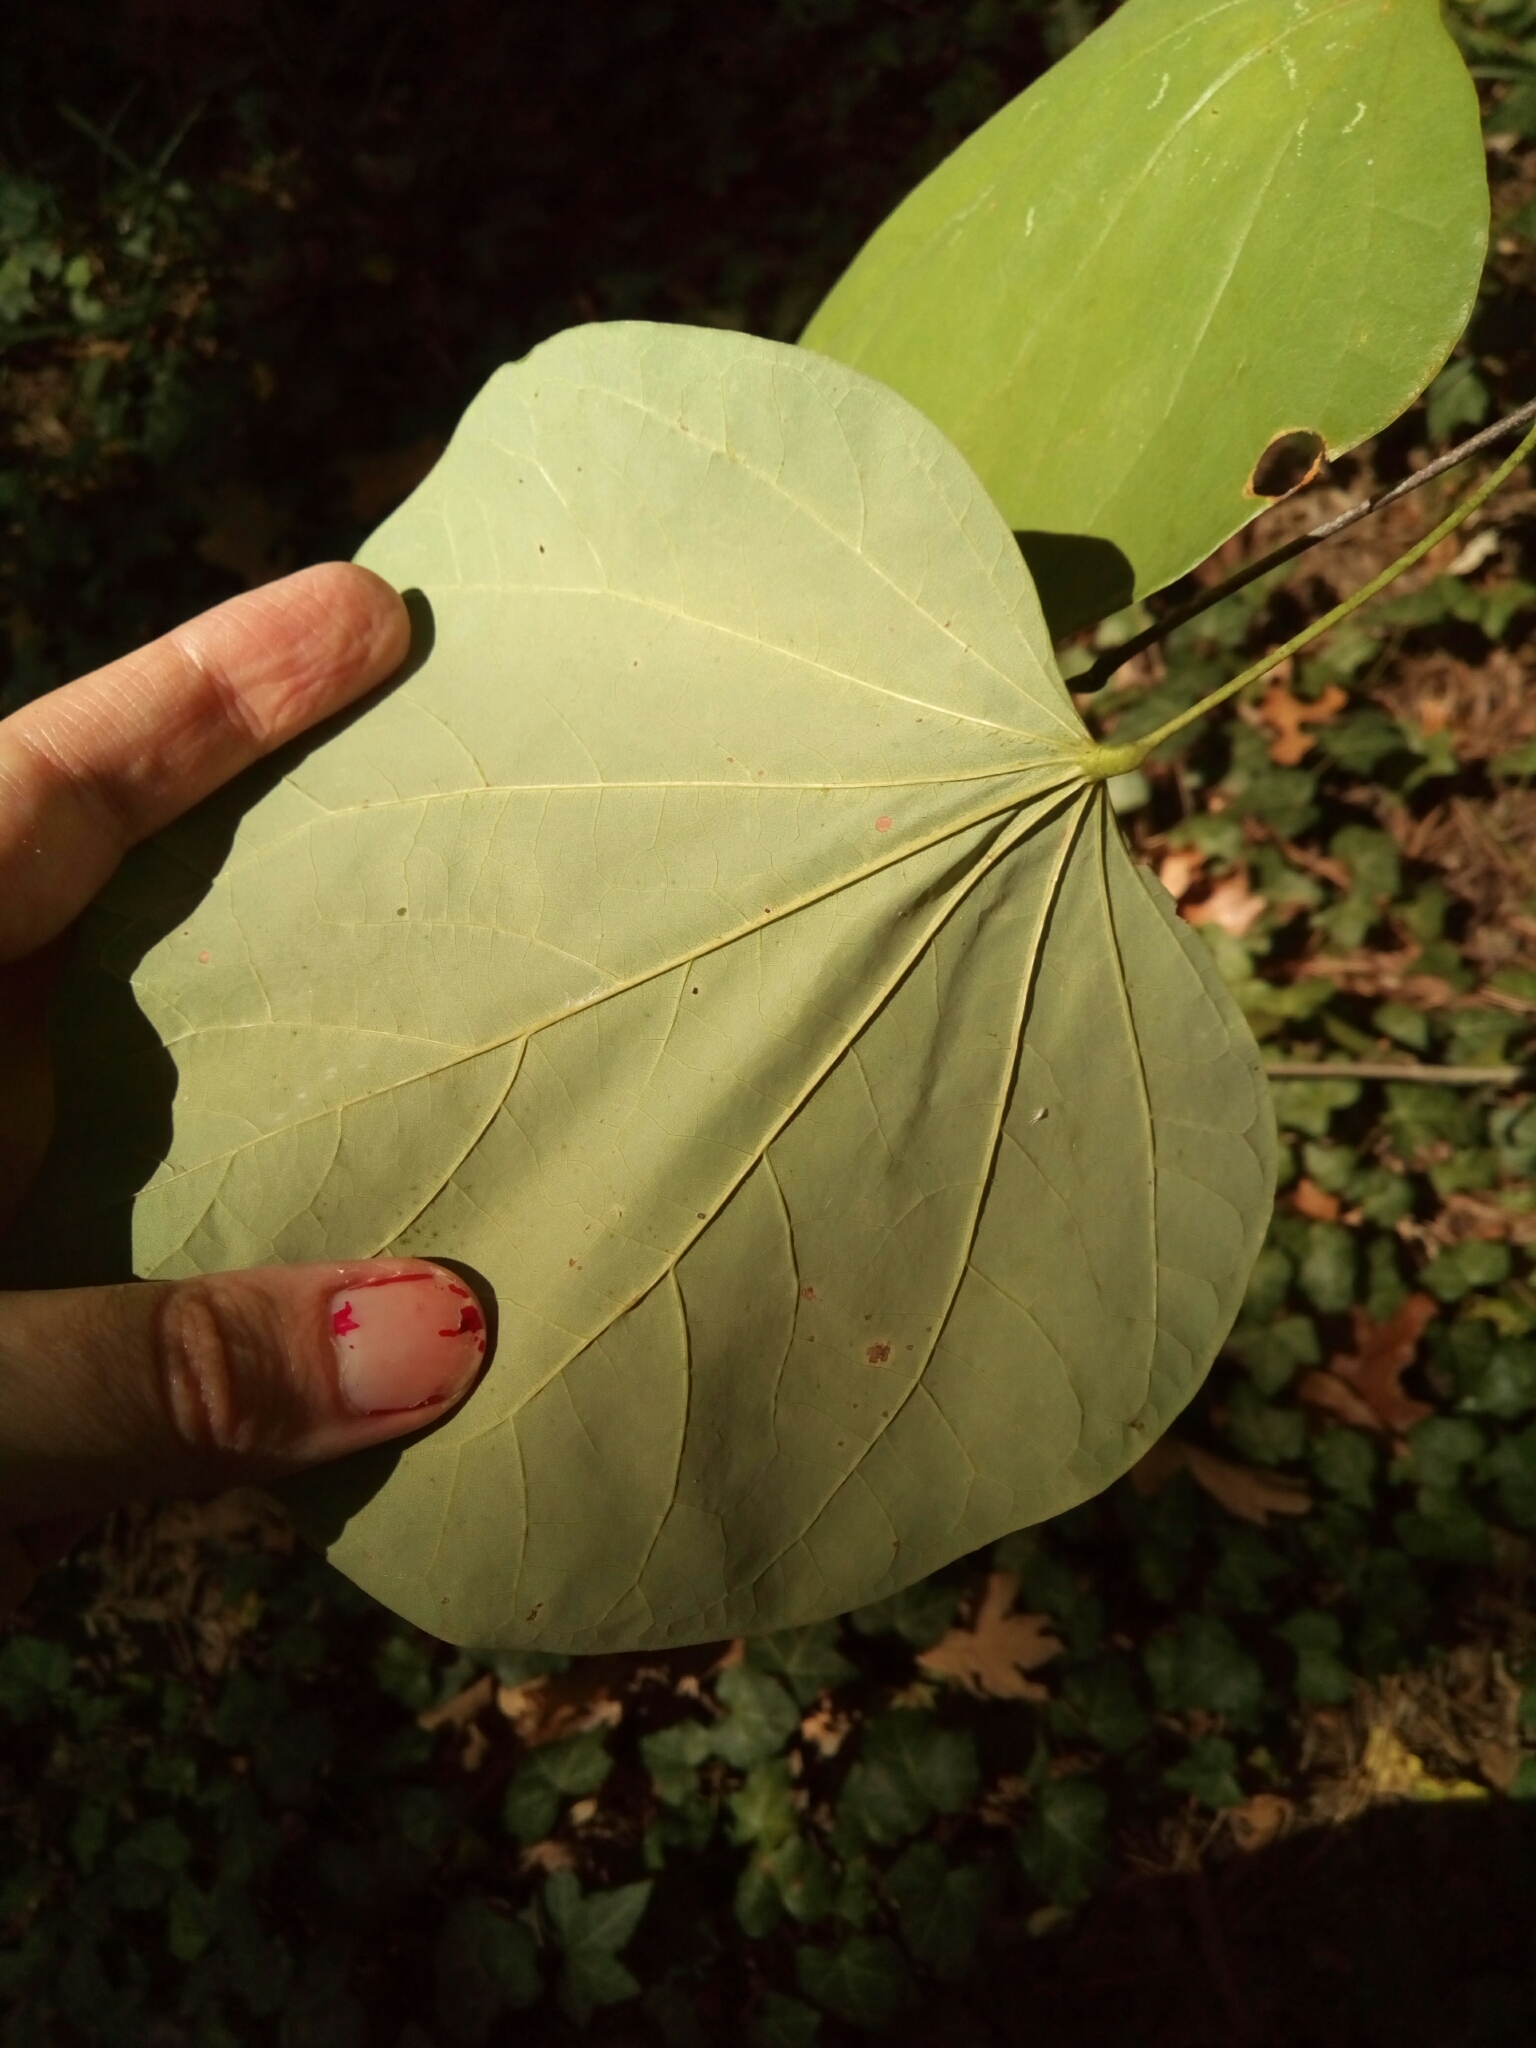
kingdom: Plantae
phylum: Tracheophyta
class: Magnoliopsida
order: Fabales
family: Fabaceae
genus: Cercis
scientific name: Cercis canadensis
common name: Eastern redbud
